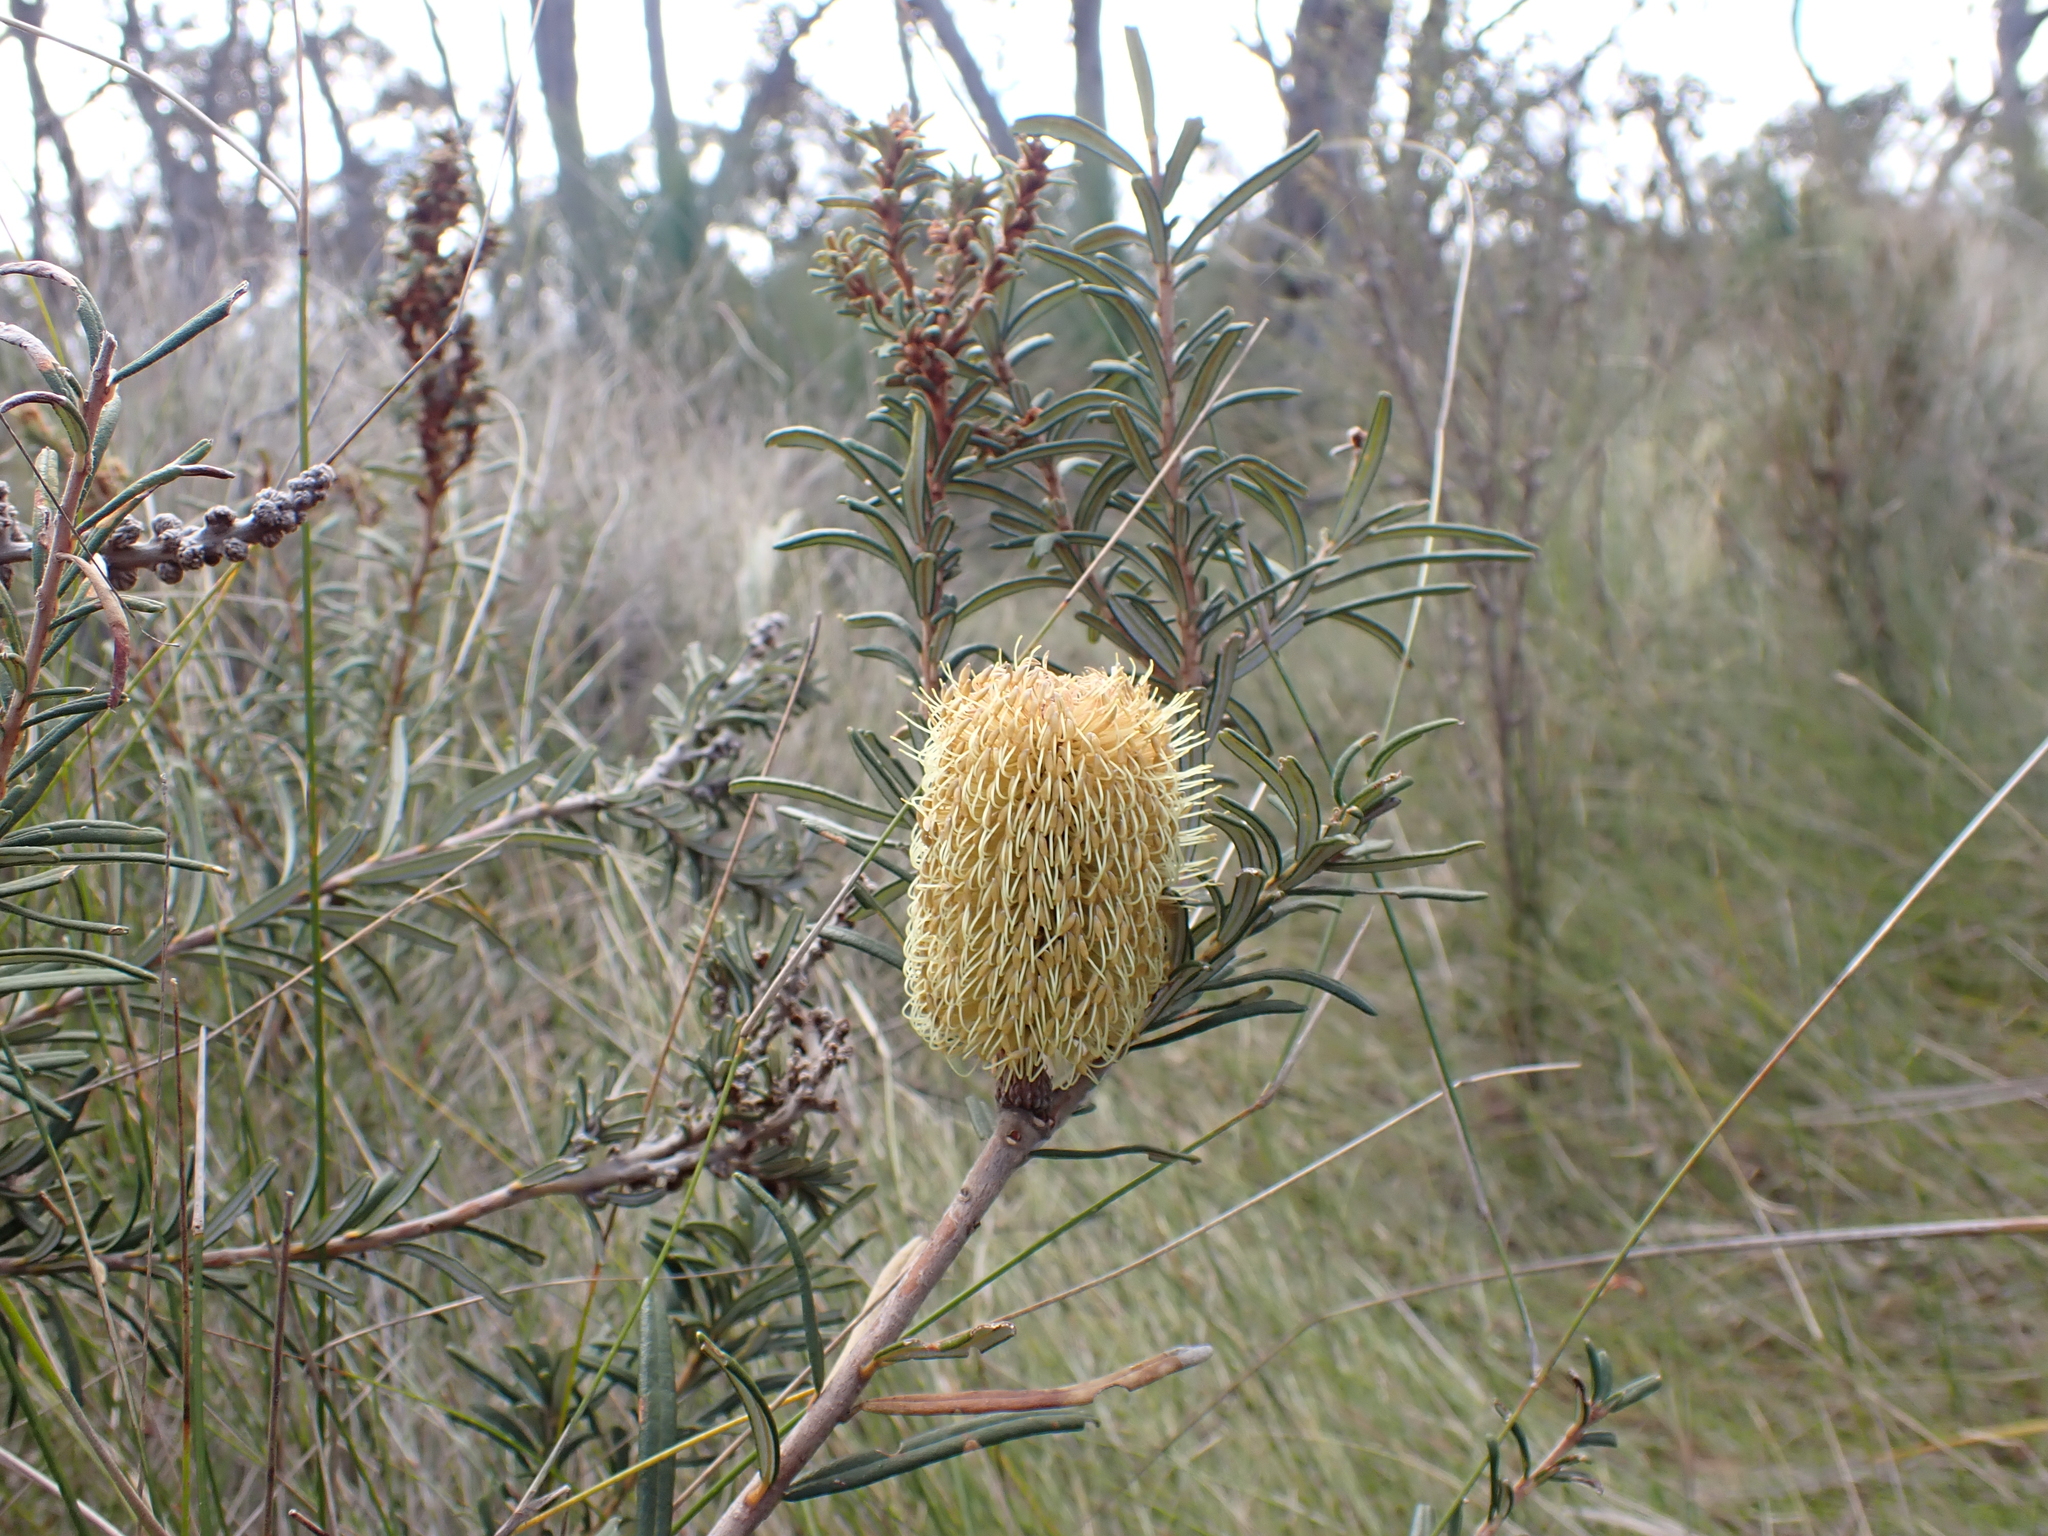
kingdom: Plantae
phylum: Tracheophyta
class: Magnoliopsida
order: Proteales
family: Proteaceae
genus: Banksia
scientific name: Banksia marginata
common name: Silver banksia
